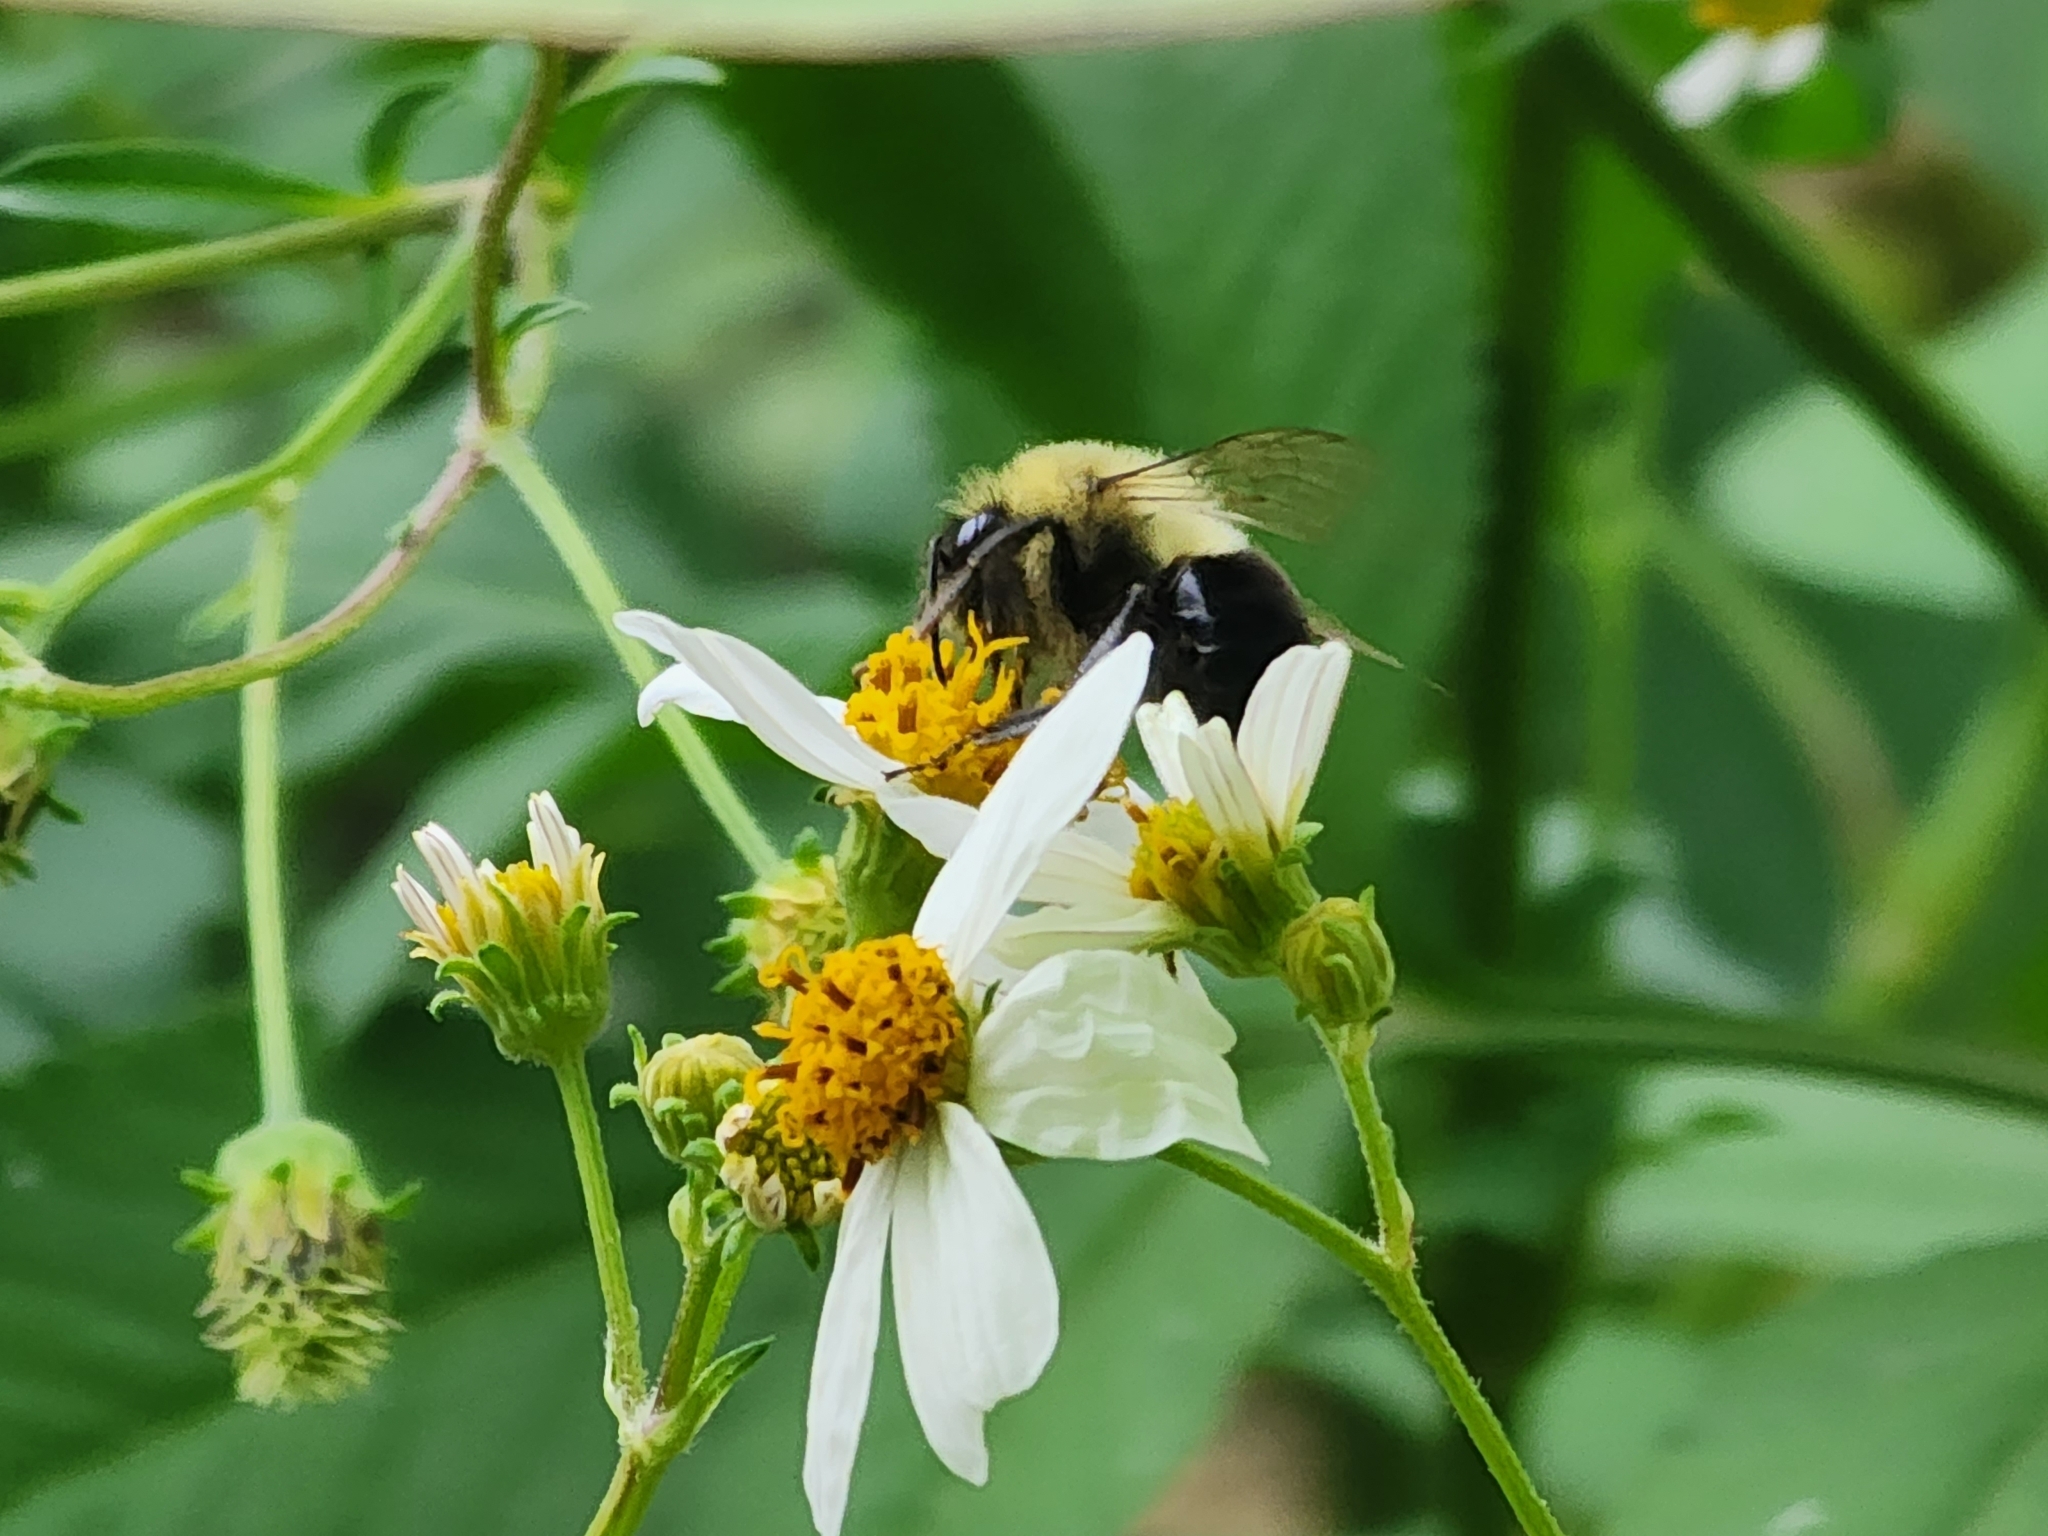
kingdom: Animalia
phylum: Arthropoda
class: Insecta
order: Hymenoptera
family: Apidae
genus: Bombus
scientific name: Bombus impatiens
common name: Common eastern bumble bee
